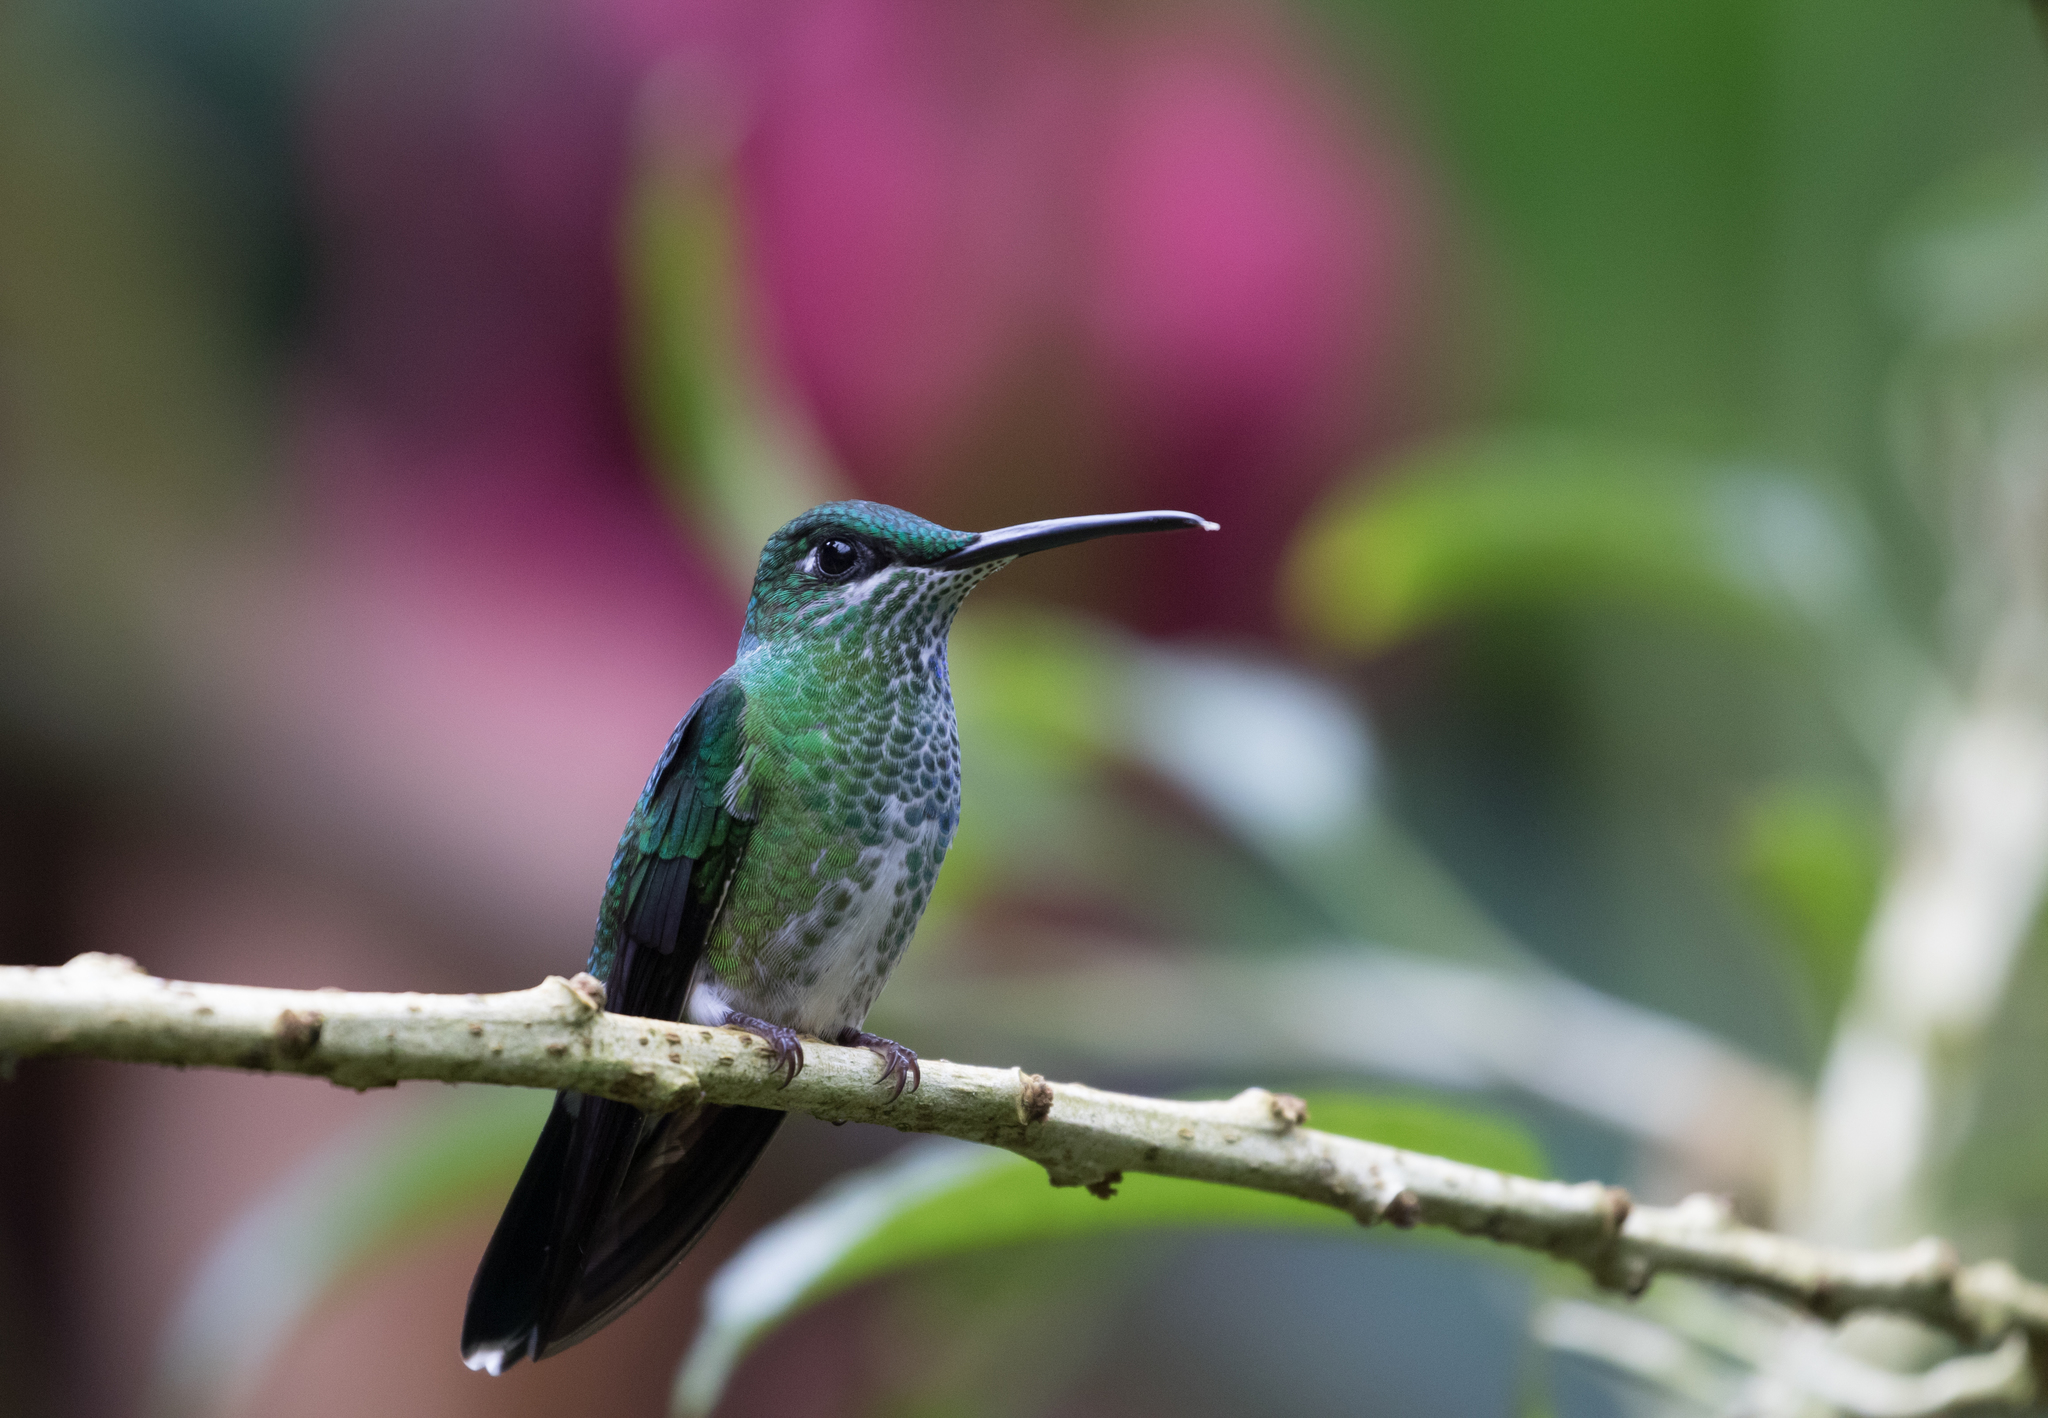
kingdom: Animalia
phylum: Chordata
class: Aves
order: Apodiformes
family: Trochilidae
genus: Heliodoxa
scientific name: Heliodoxa jacula
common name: Green-crowned brilliant
